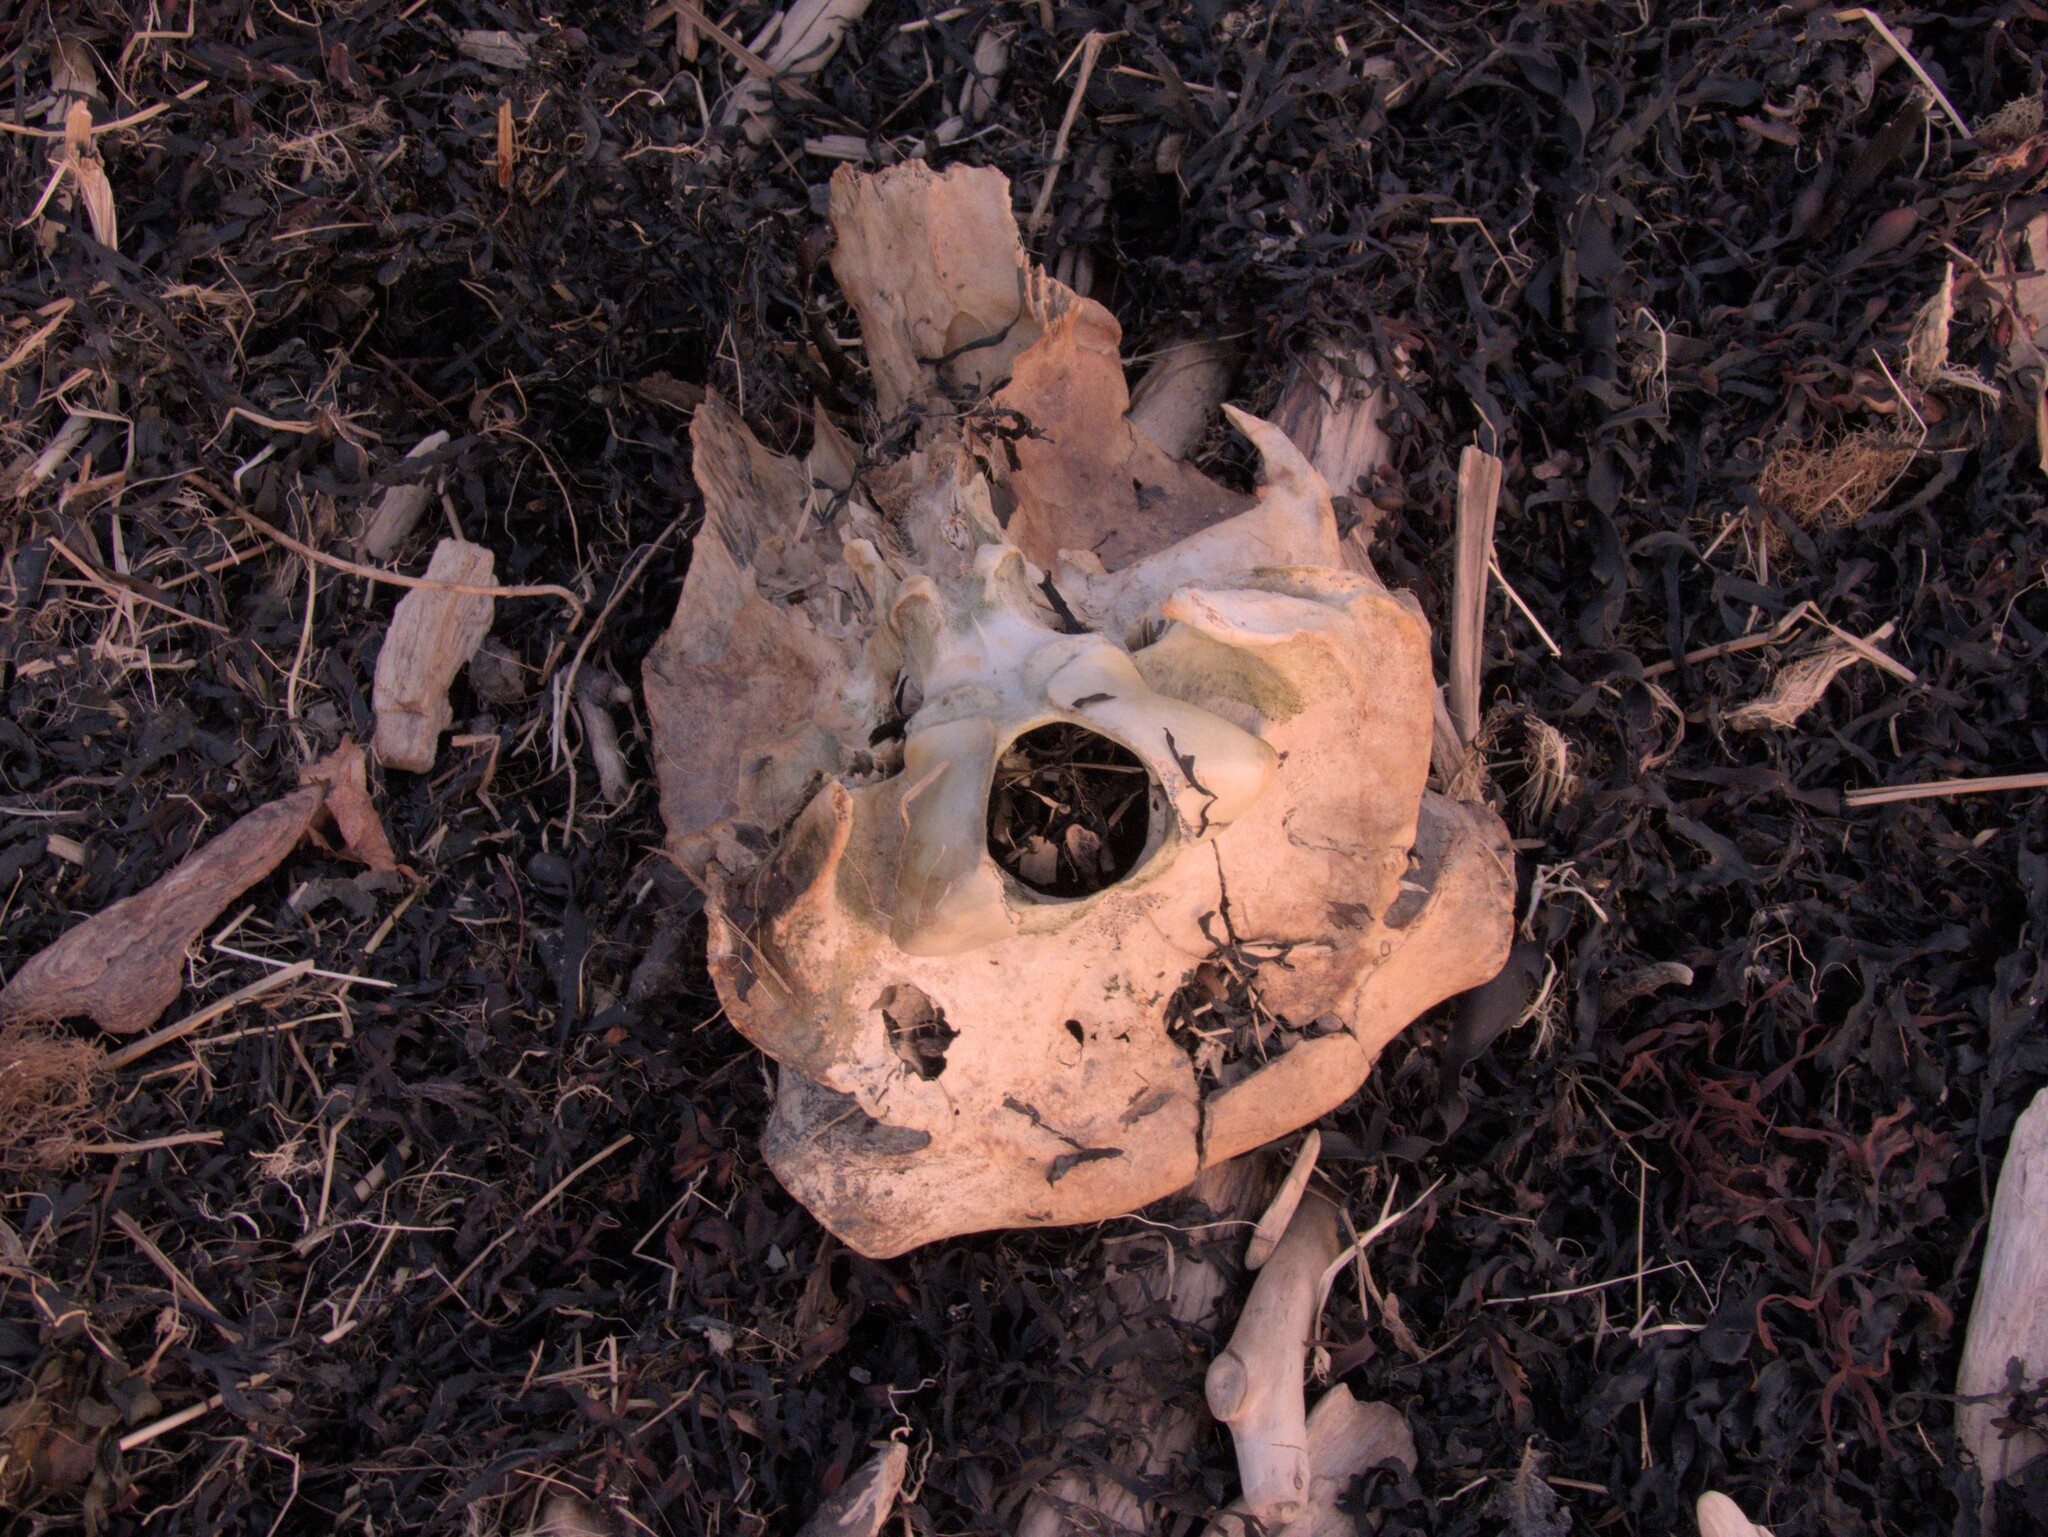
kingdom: Animalia
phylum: Chordata
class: Mammalia
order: Artiodactyla
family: Bovidae
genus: Bos
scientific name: Bos taurus
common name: Domesticated cattle
